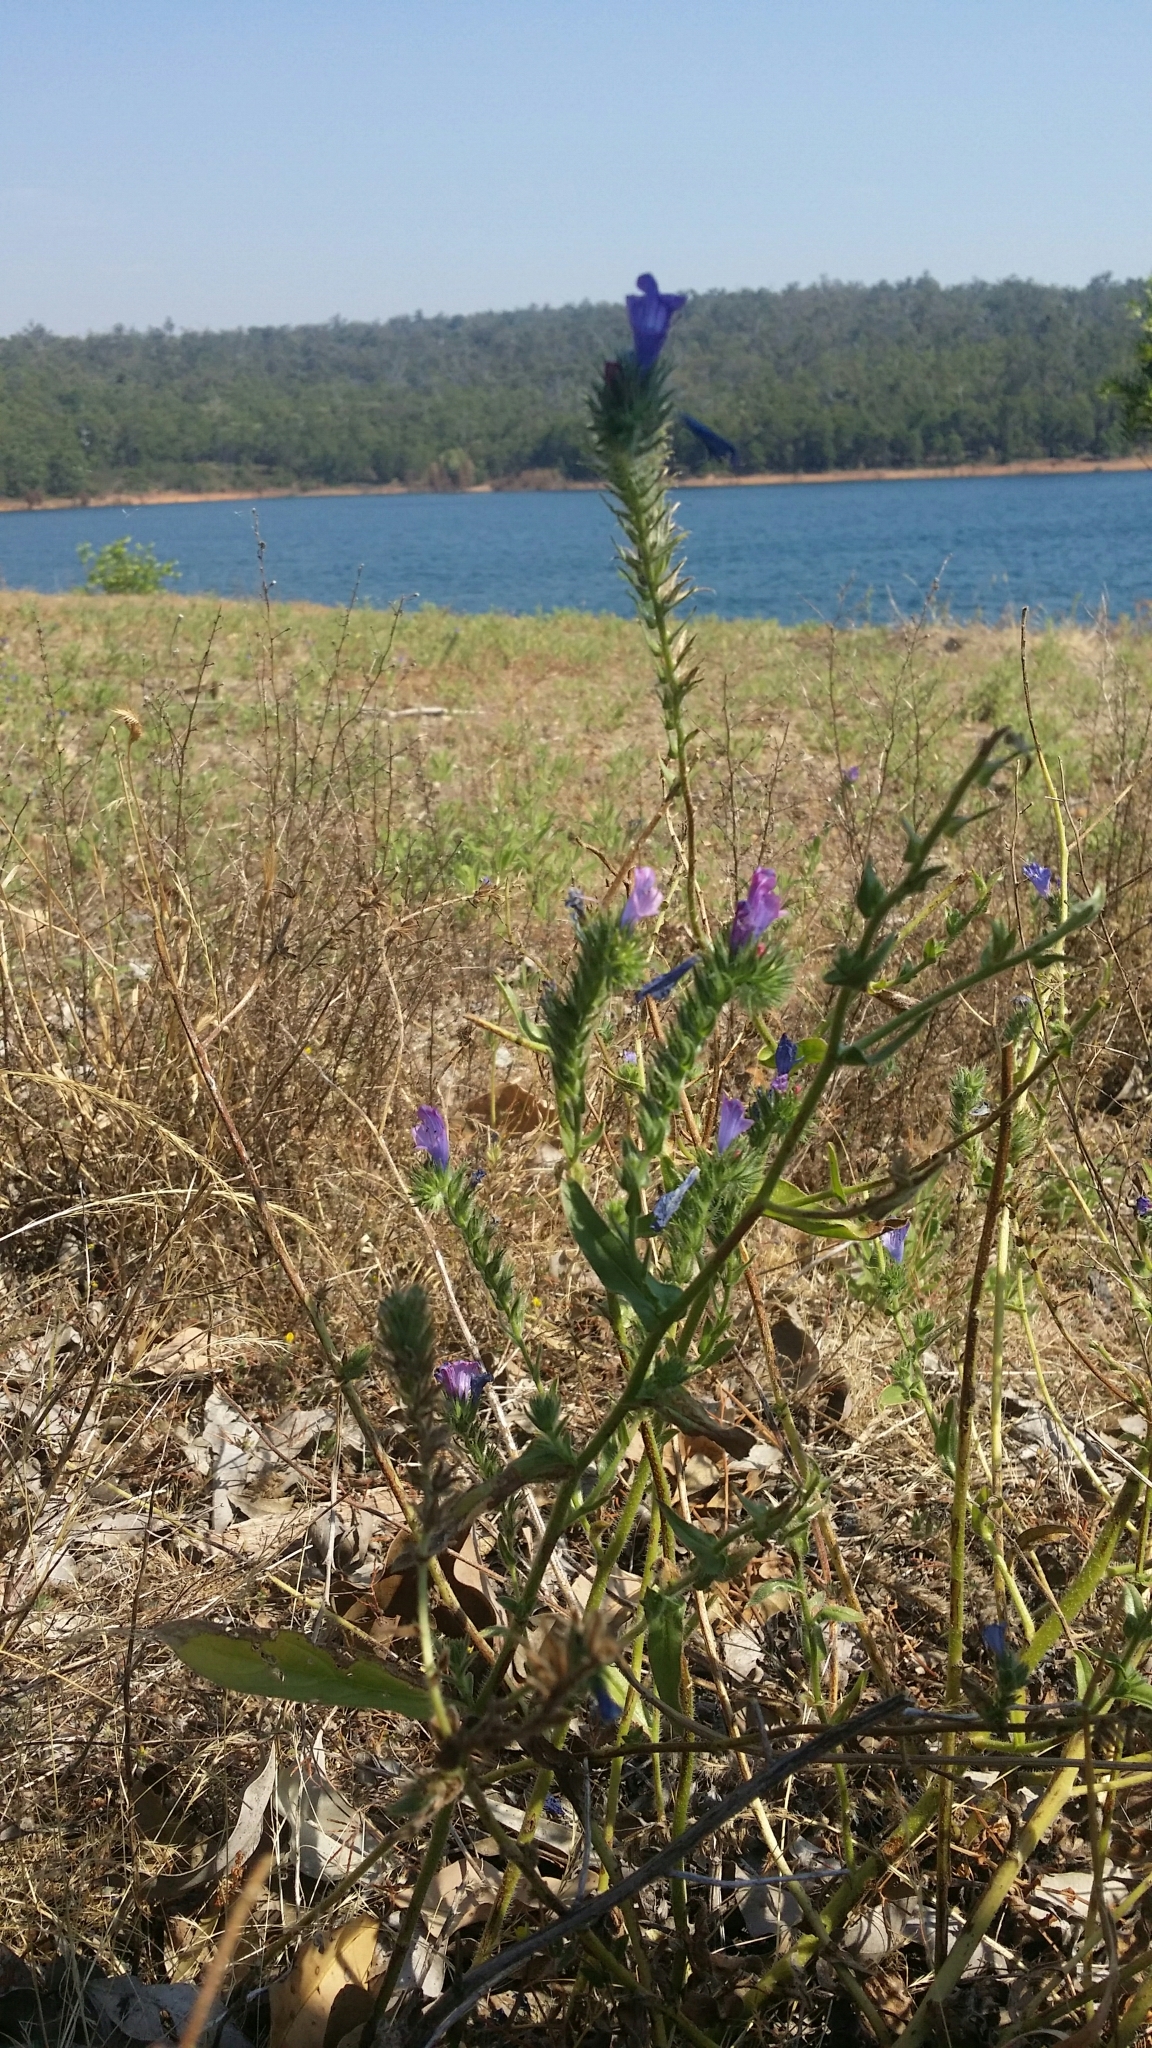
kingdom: Plantae
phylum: Tracheophyta
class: Magnoliopsida
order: Boraginales
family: Boraginaceae
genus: Echium
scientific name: Echium plantagineum
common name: Purple viper's-bugloss
